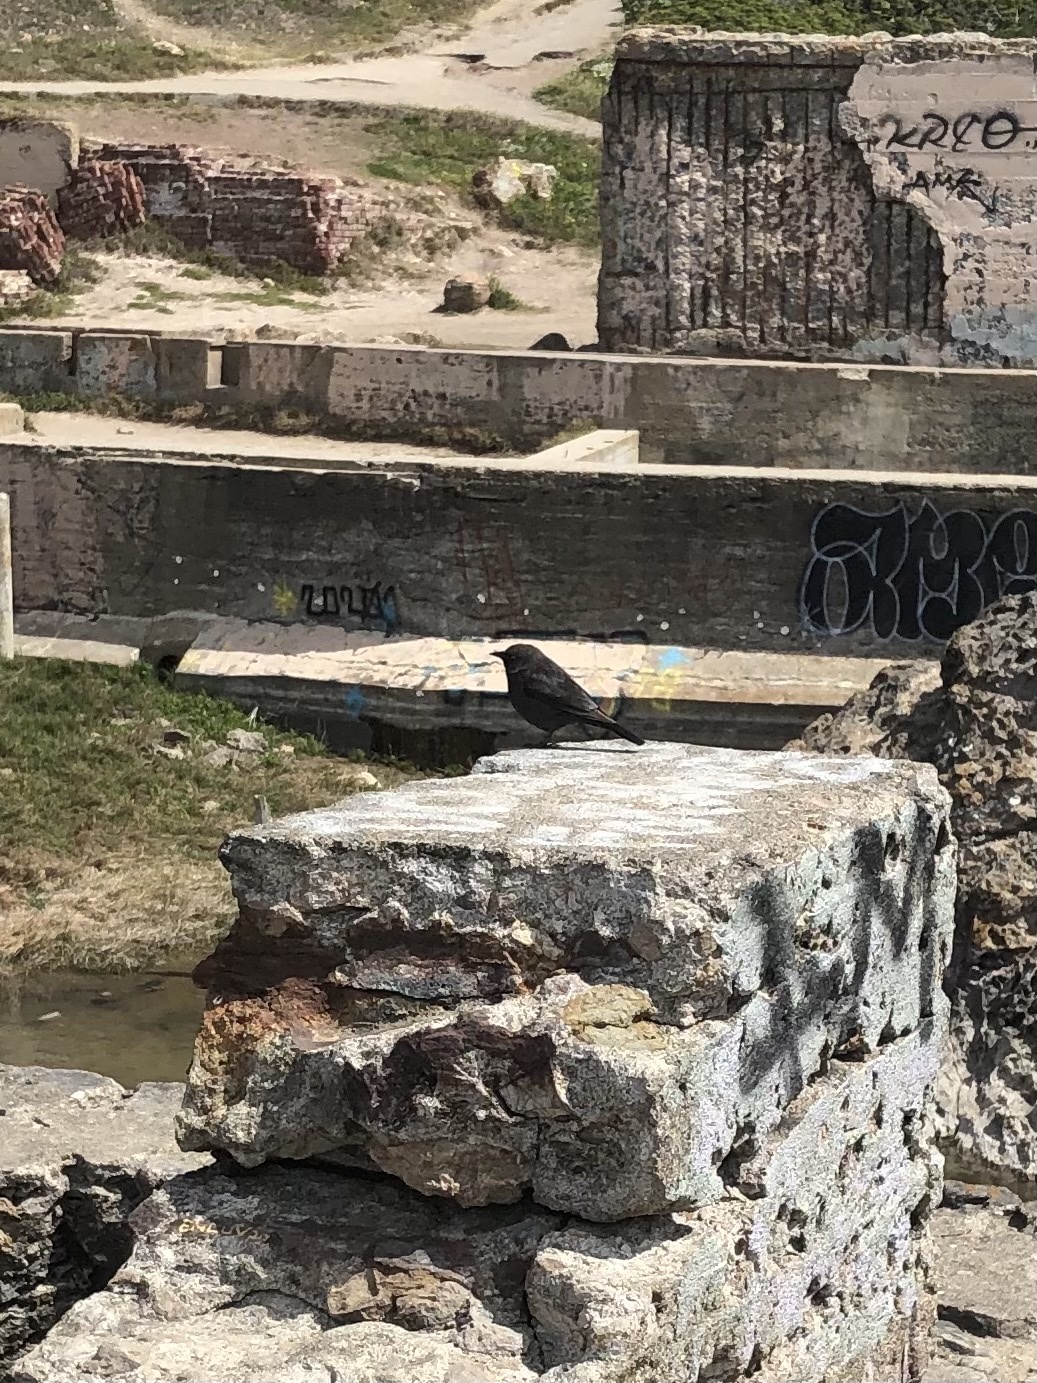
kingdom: Animalia
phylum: Chordata
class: Aves
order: Passeriformes
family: Icteridae
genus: Euphagus
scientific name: Euphagus cyanocephalus
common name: Brewer's blackbird
